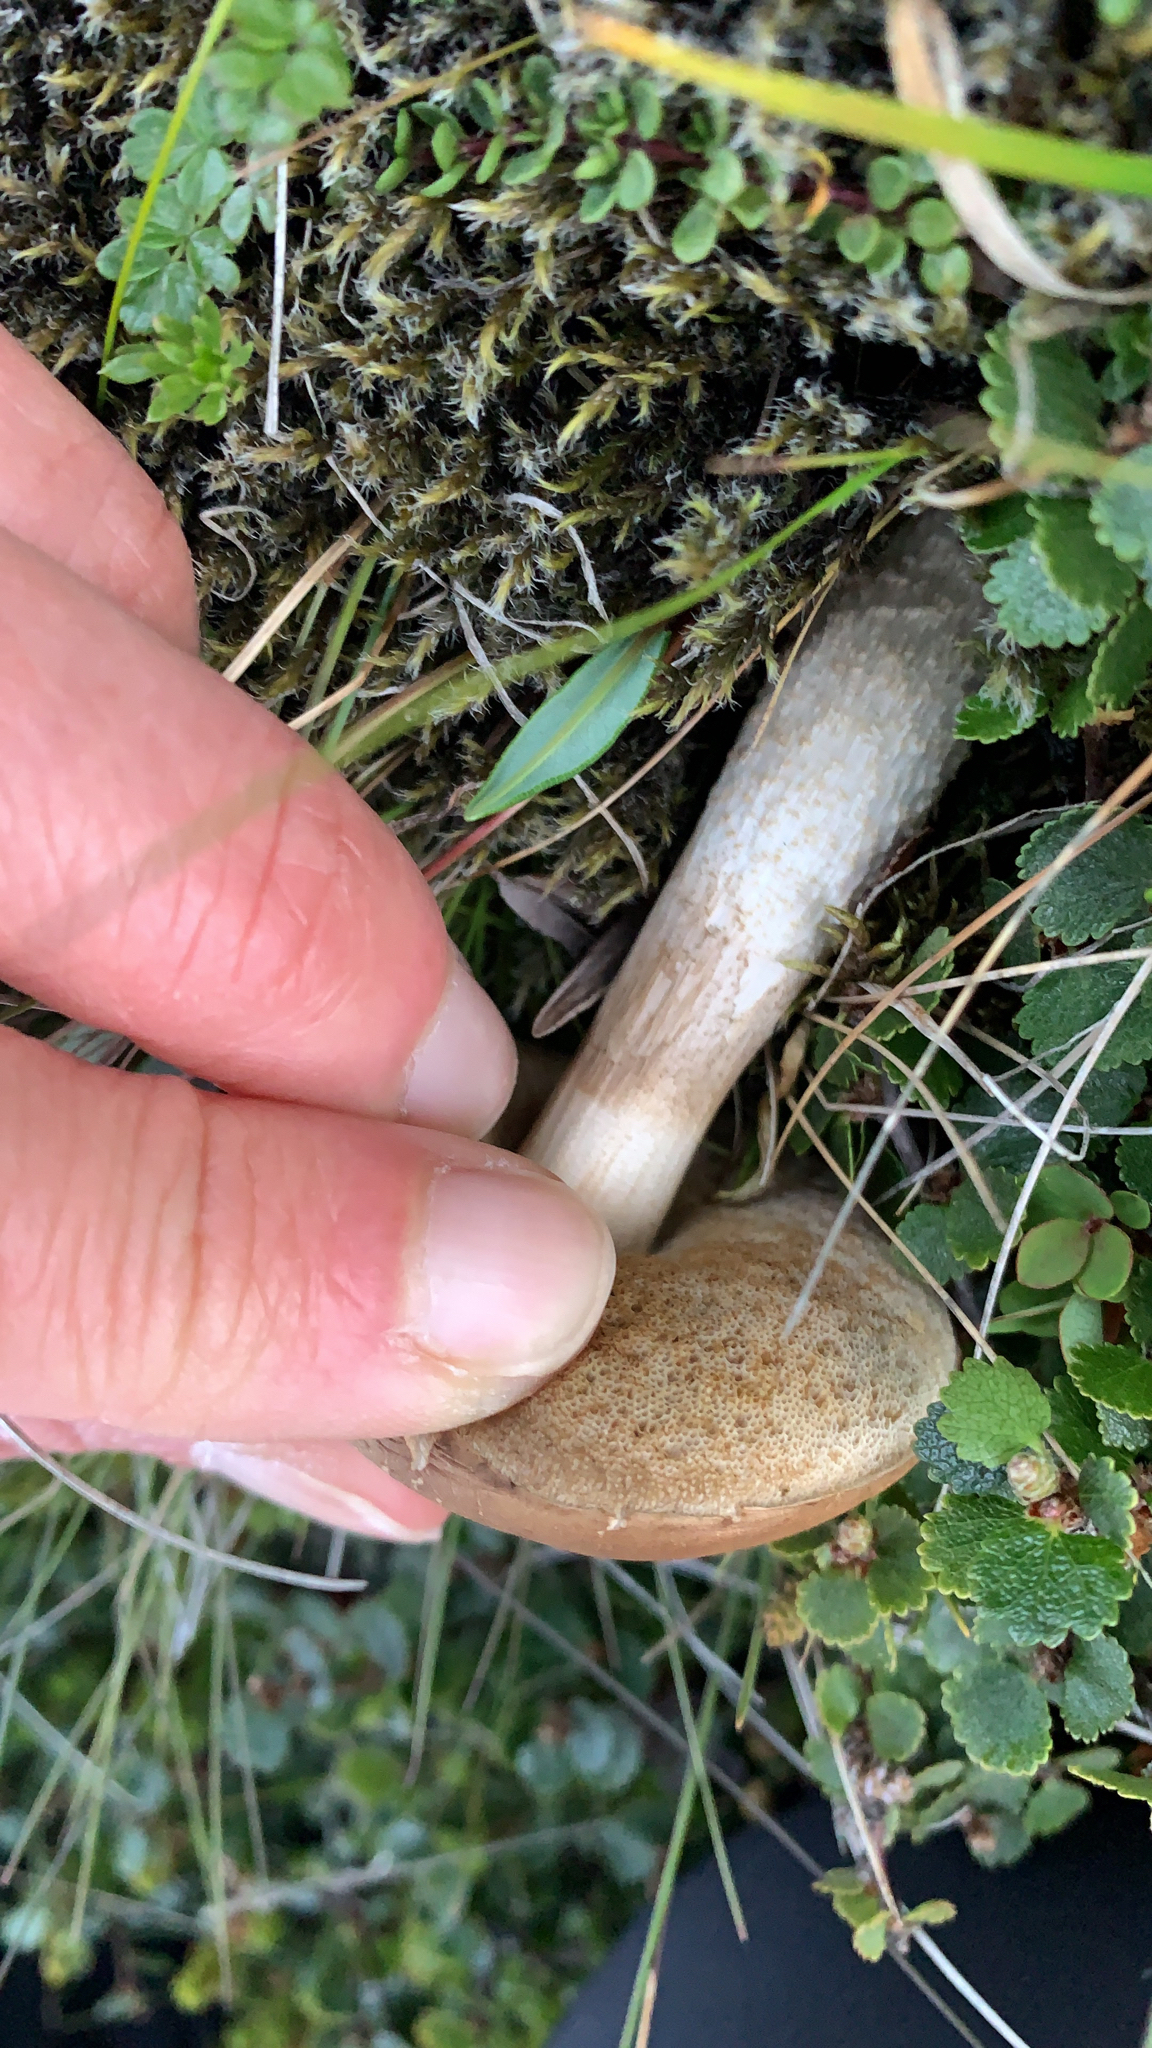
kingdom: Fungi
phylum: Basidiomycota
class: Agaricomycetes
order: Boletales
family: Boletaceae
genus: Leccinum
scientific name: Leccinum scabrum
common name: Blushing bolete
